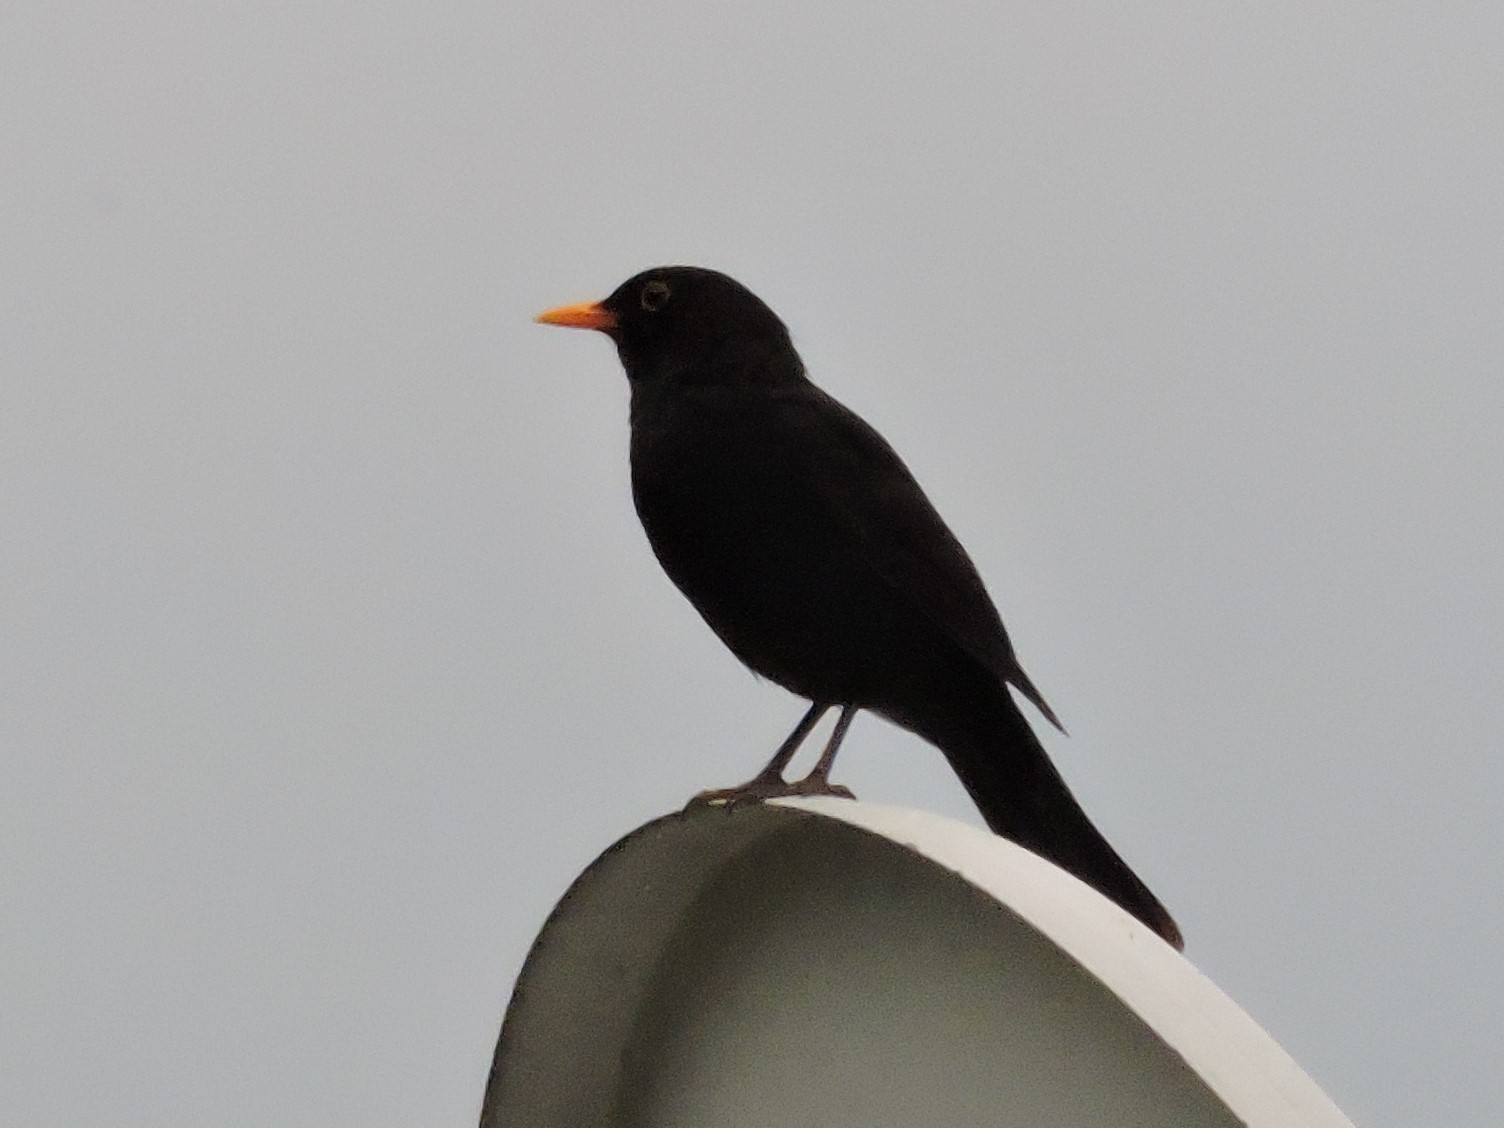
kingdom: Animalia
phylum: Chordata
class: Aves
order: Passeriformes
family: Turdidae
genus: Turdus
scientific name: Turdus merula
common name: Common blackbird
